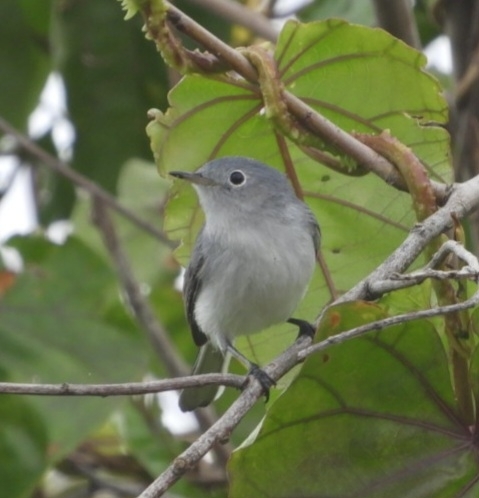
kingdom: Animalia
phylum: Chordata
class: Aves
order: Passeriformes
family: Polioptilidae
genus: Polioptila
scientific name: Polioptila caerulea
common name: Blue-gray gnatcatcher
